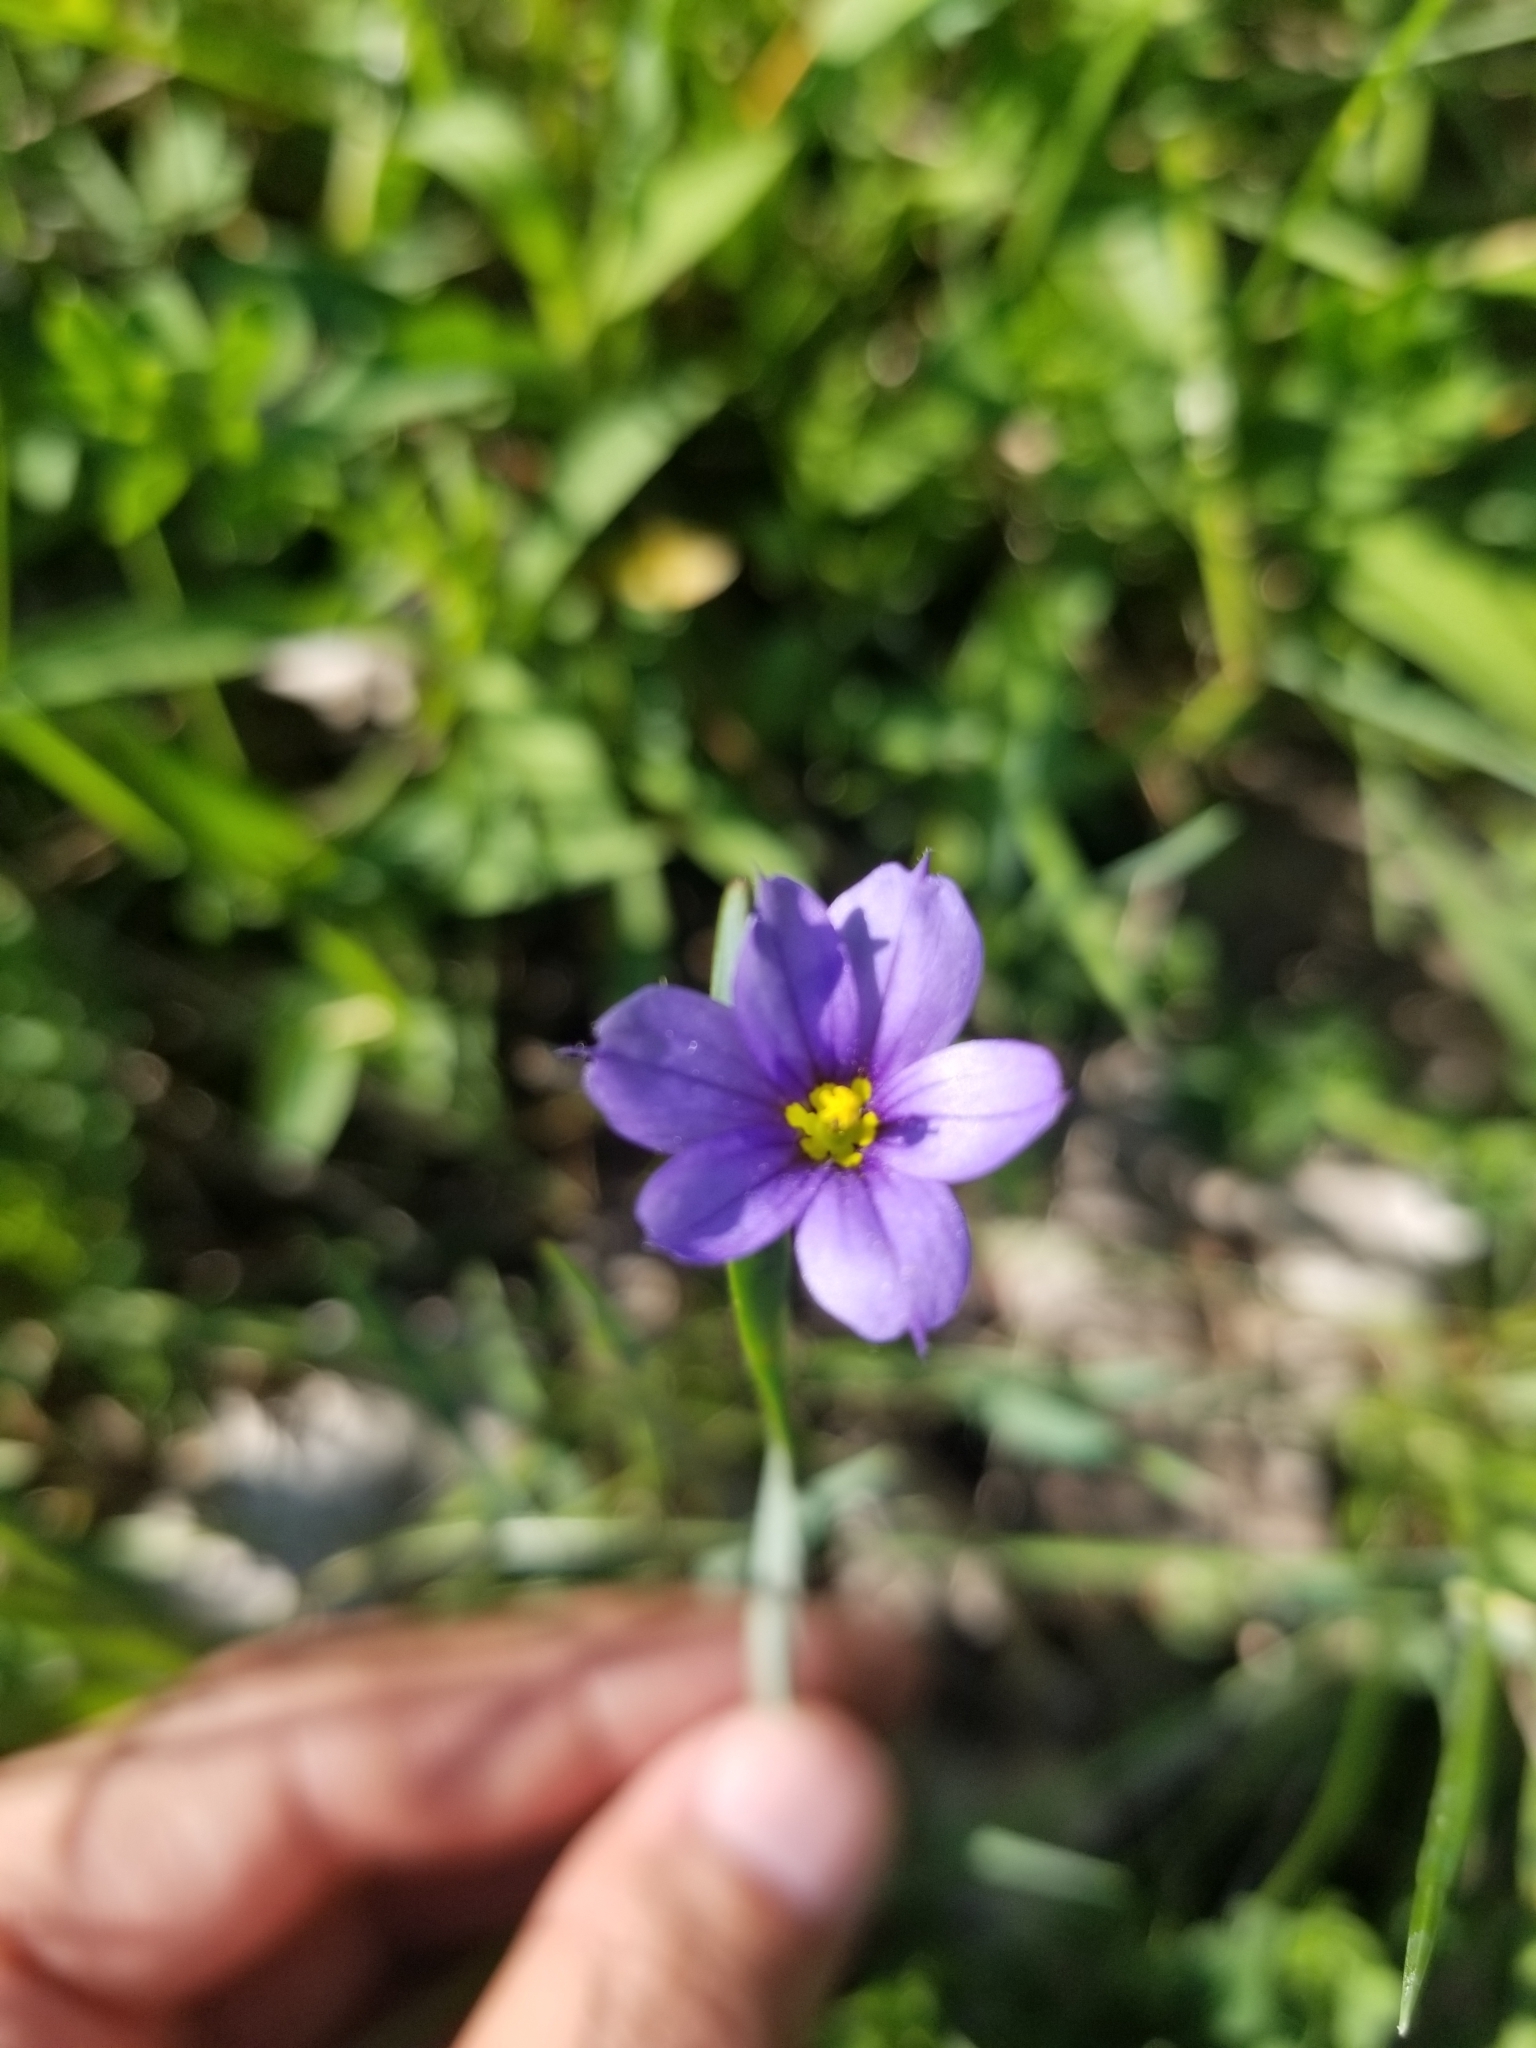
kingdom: Plantae
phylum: Tracheophyta
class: Liliopsida
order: Asparagales
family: Iridaceae
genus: Sisyrinchium
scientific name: Sisyrinchium montanum
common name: American blue-eyed-grass
